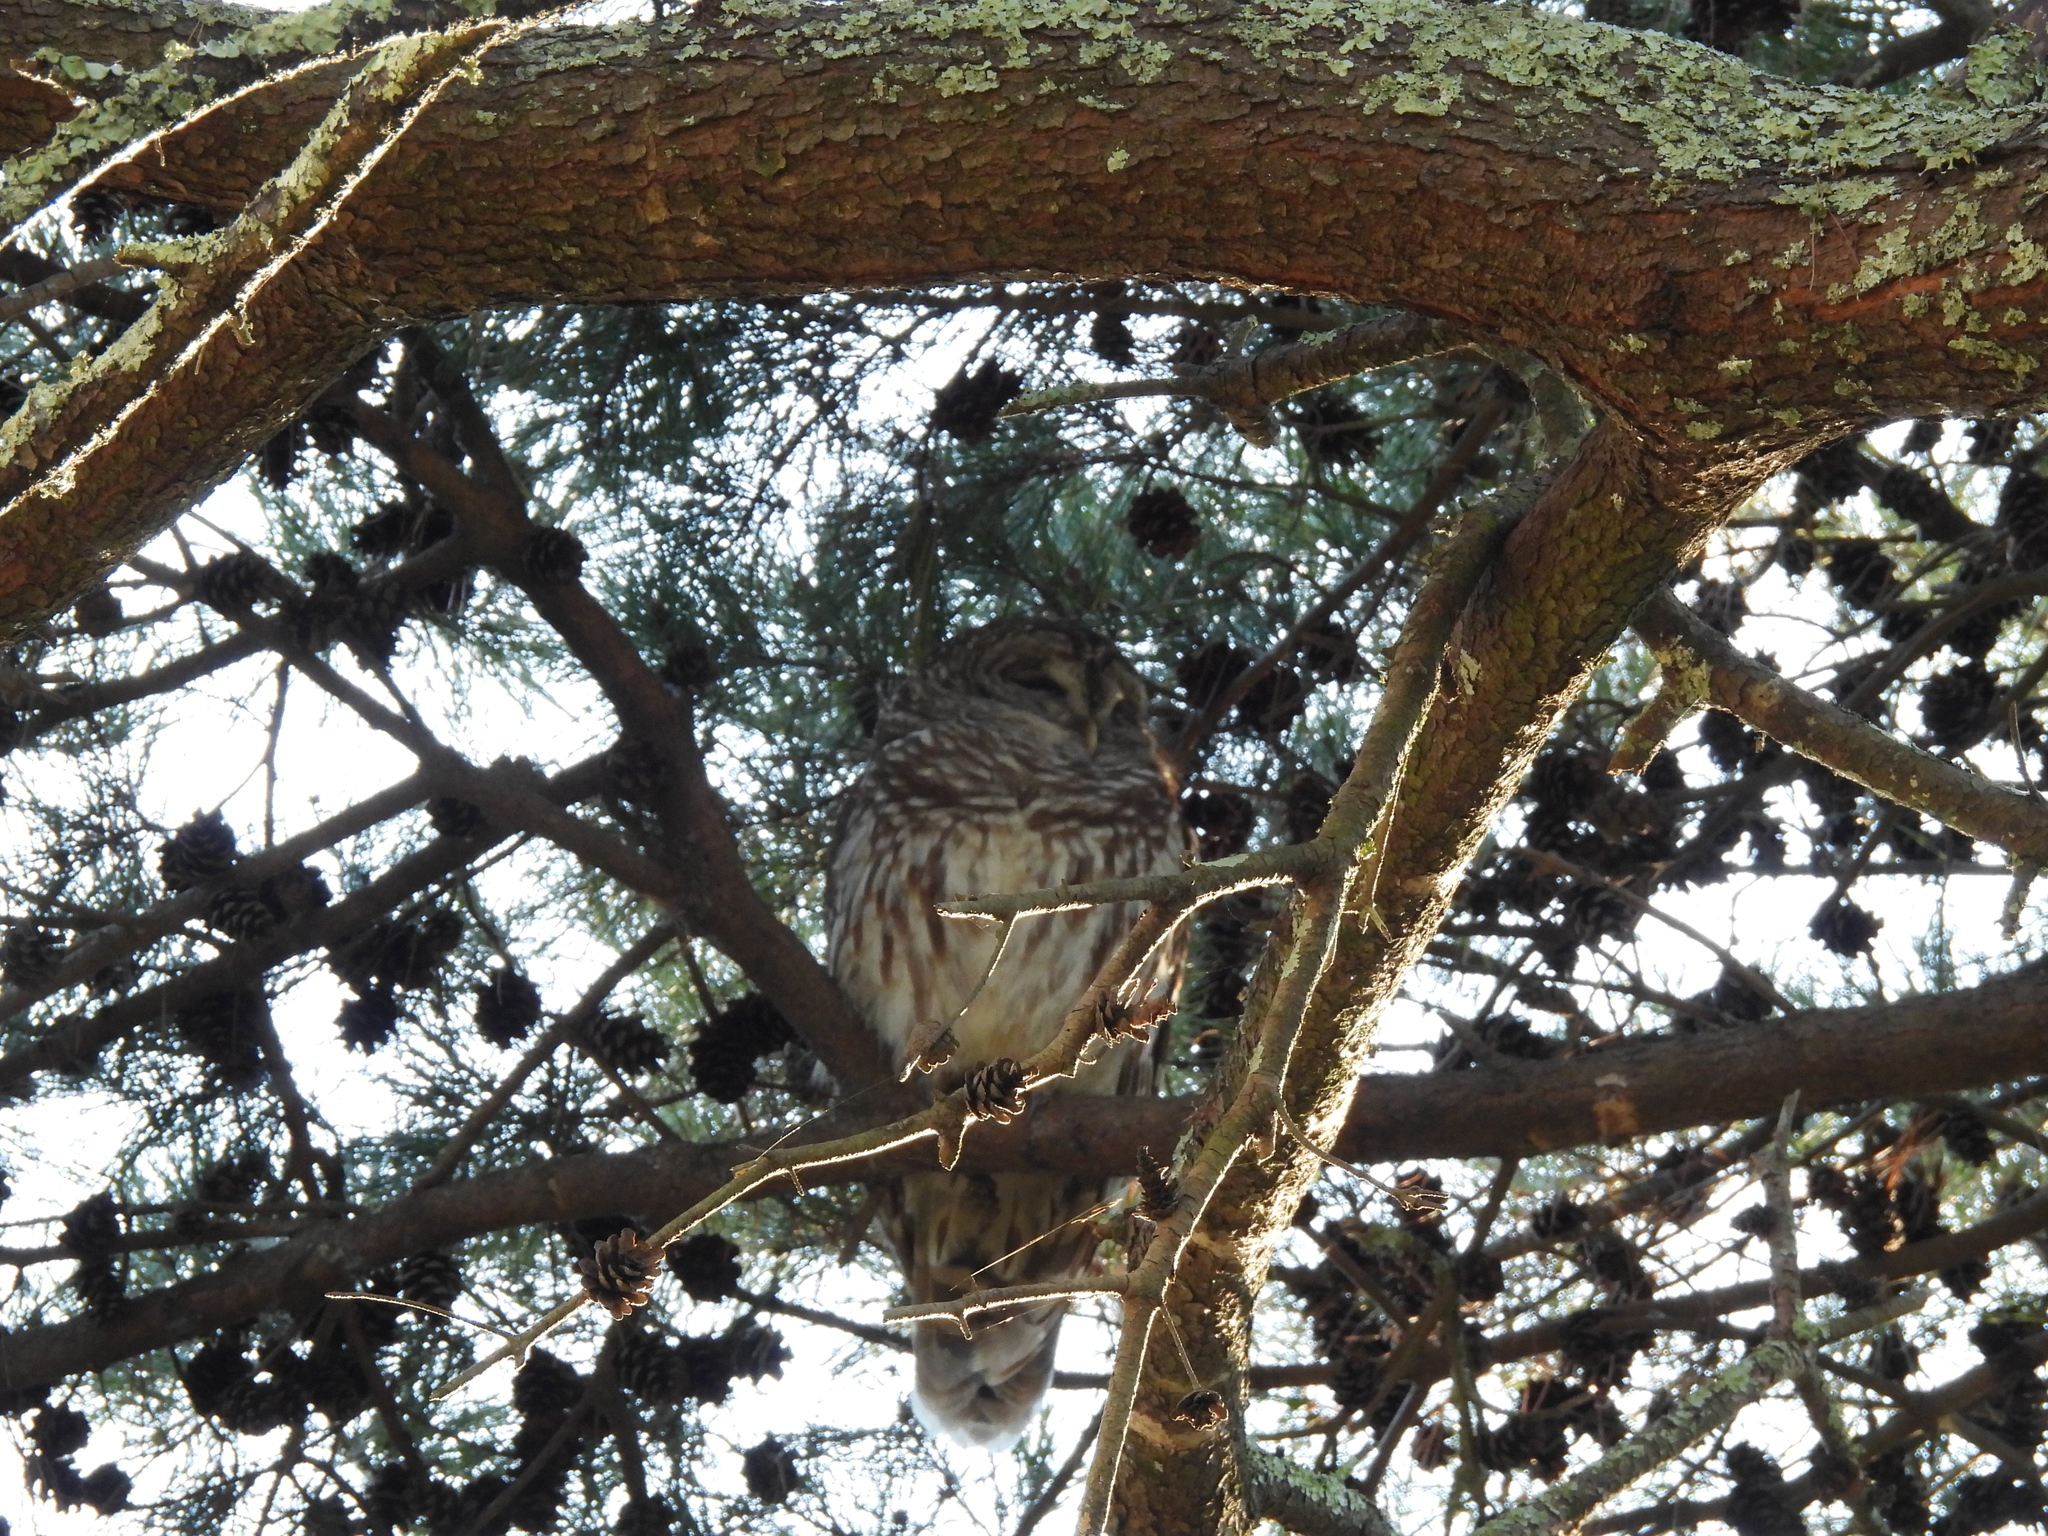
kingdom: Animalia
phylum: Chordata
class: Aves
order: Strigiformes
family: Strigidae
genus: Strix
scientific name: Strix varia
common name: Barred owl
